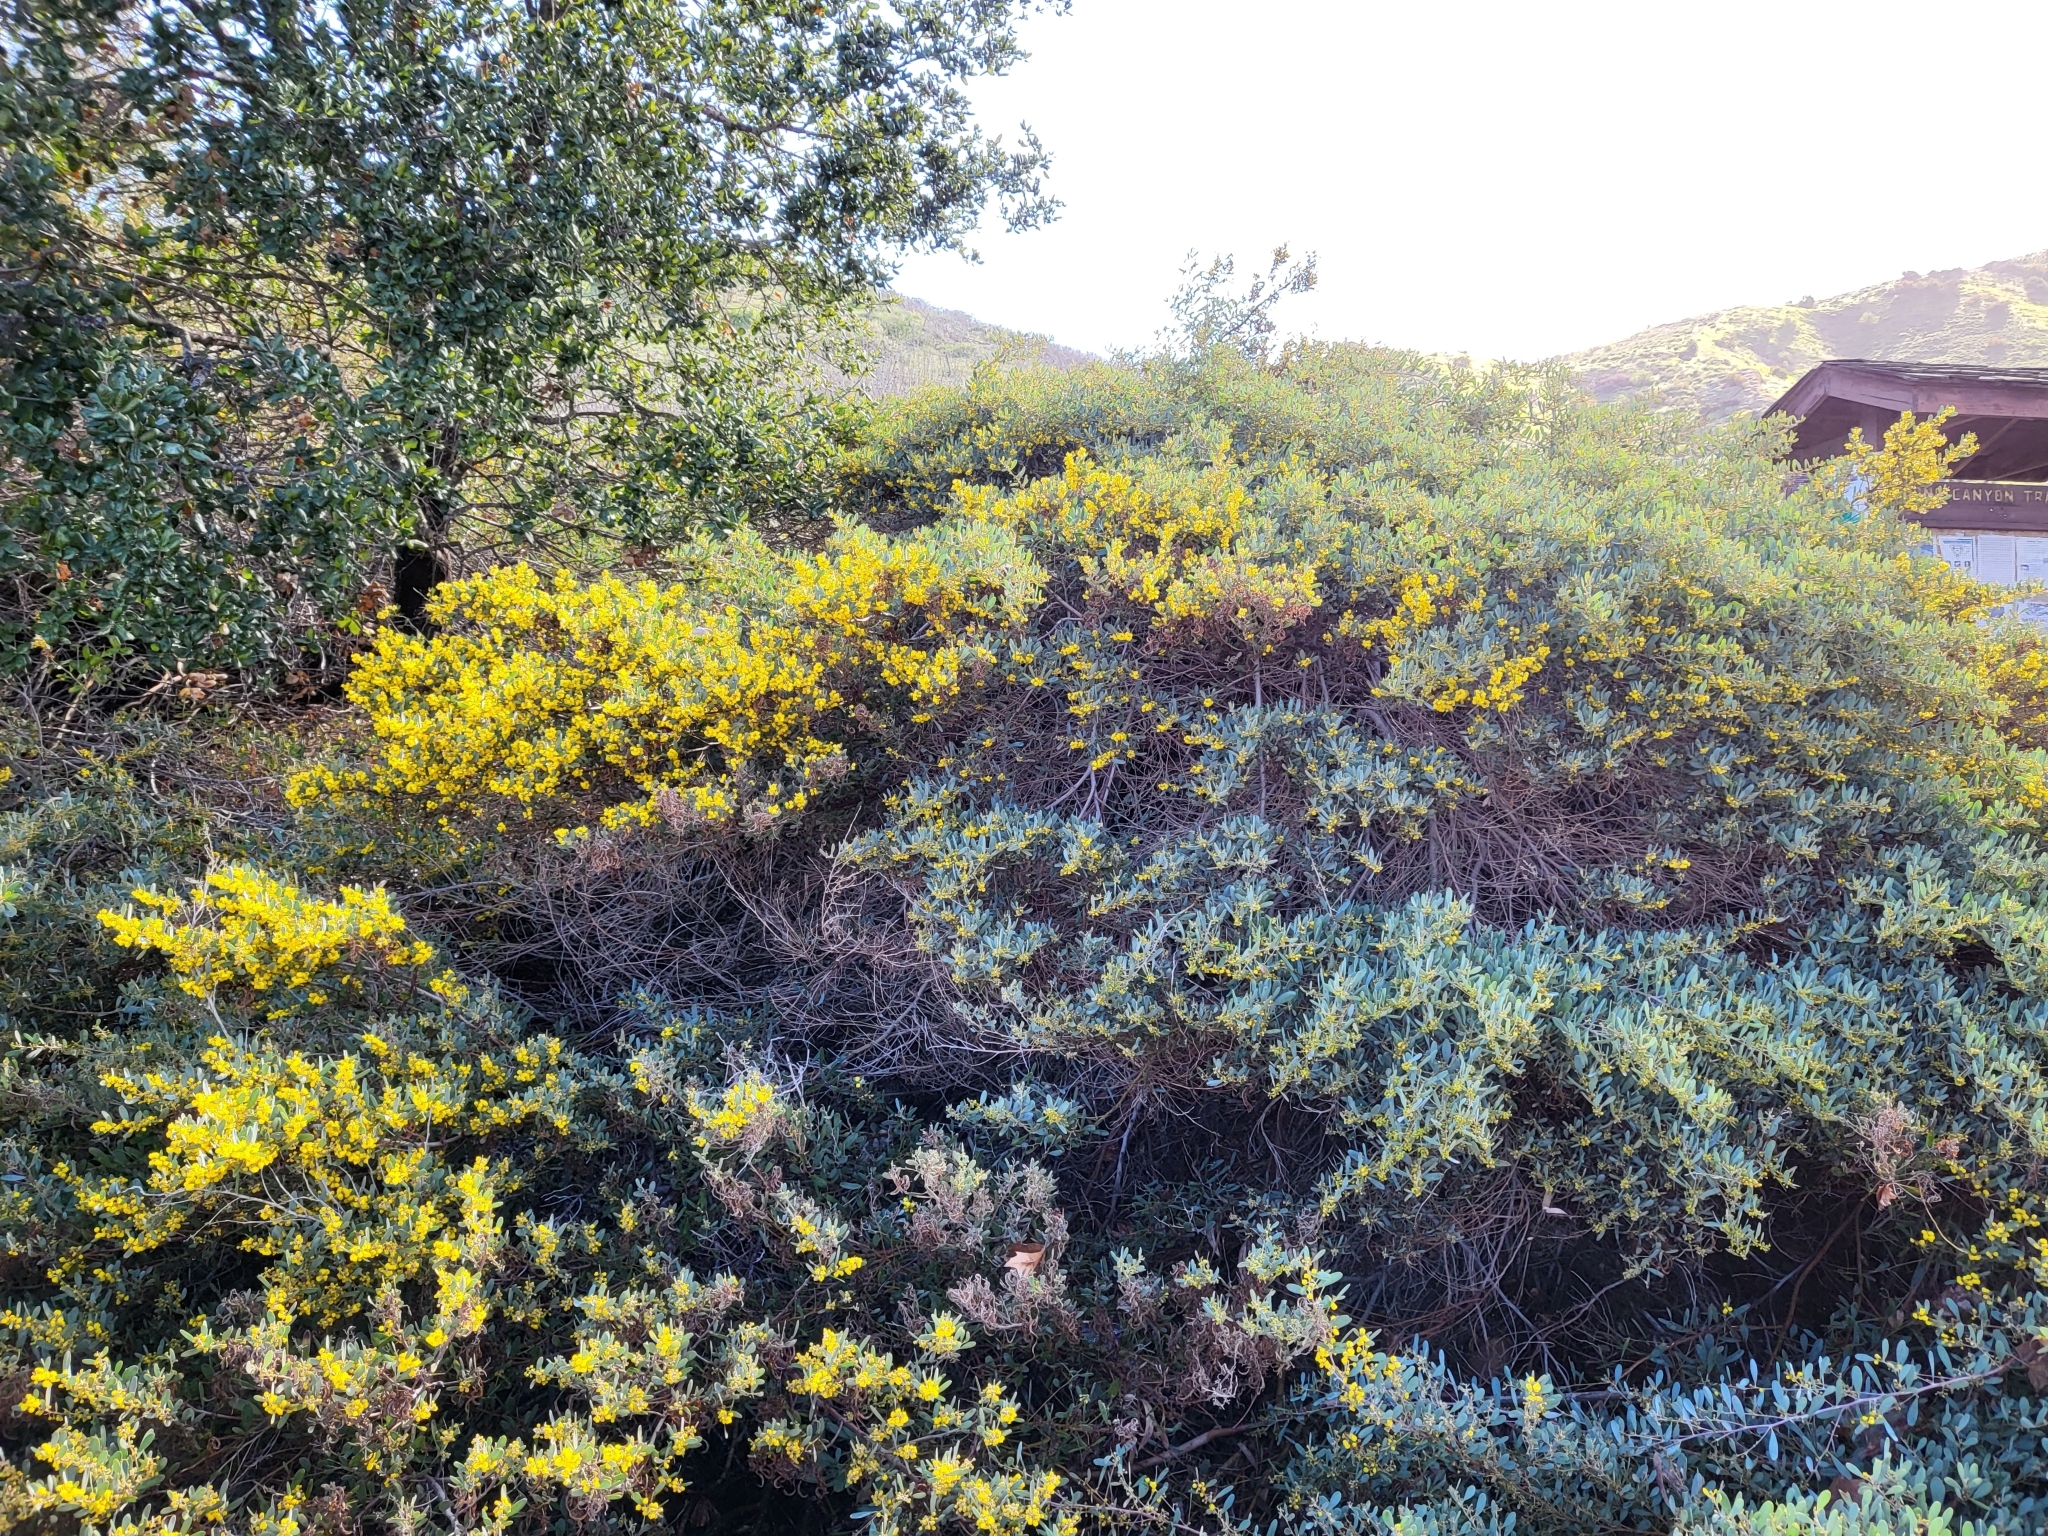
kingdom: Plantae
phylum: Tracheophyta
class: Magnoliopsida
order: Fabales
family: Fabaceae
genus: Acacia
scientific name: Acacia redolens
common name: Bank catclaw
